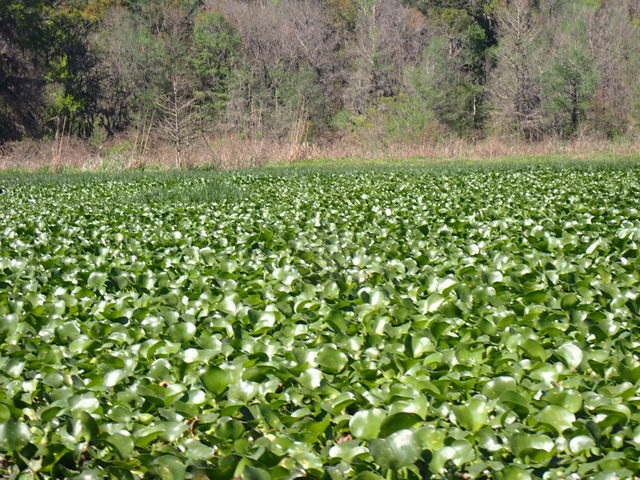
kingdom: Plantae
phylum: Tracheophyta
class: Liliopsida
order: Commelinales
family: Pontederiaceae
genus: Pontederia
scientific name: Pontederia crassipes
